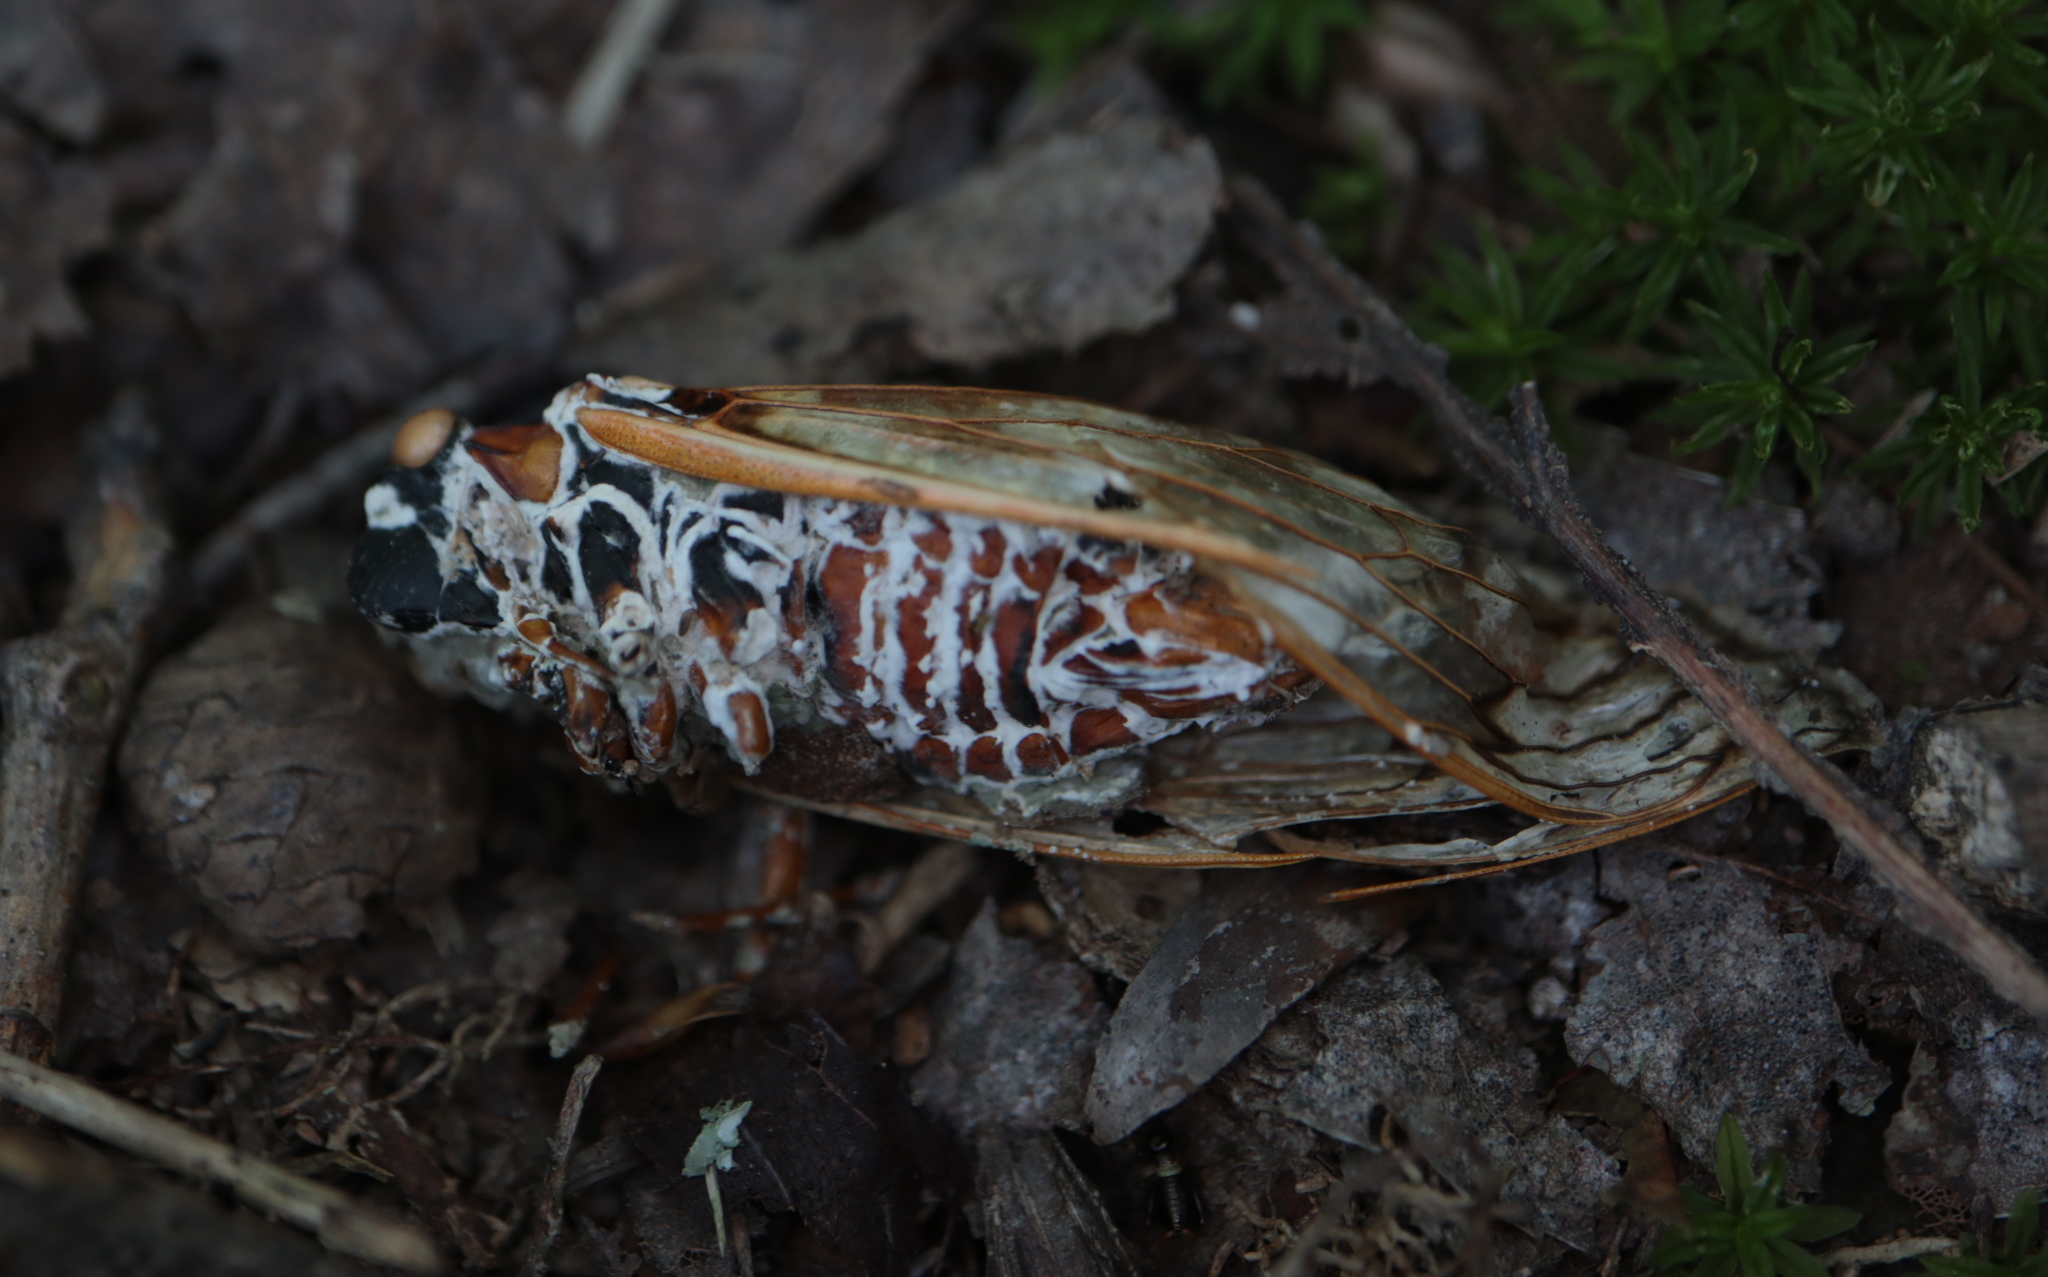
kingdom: Fungi
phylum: Ascomycota
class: Sordariomycetes
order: Hypocreales
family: Cordycipitaceae
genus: Beauveria
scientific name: Beauveria bassiana
